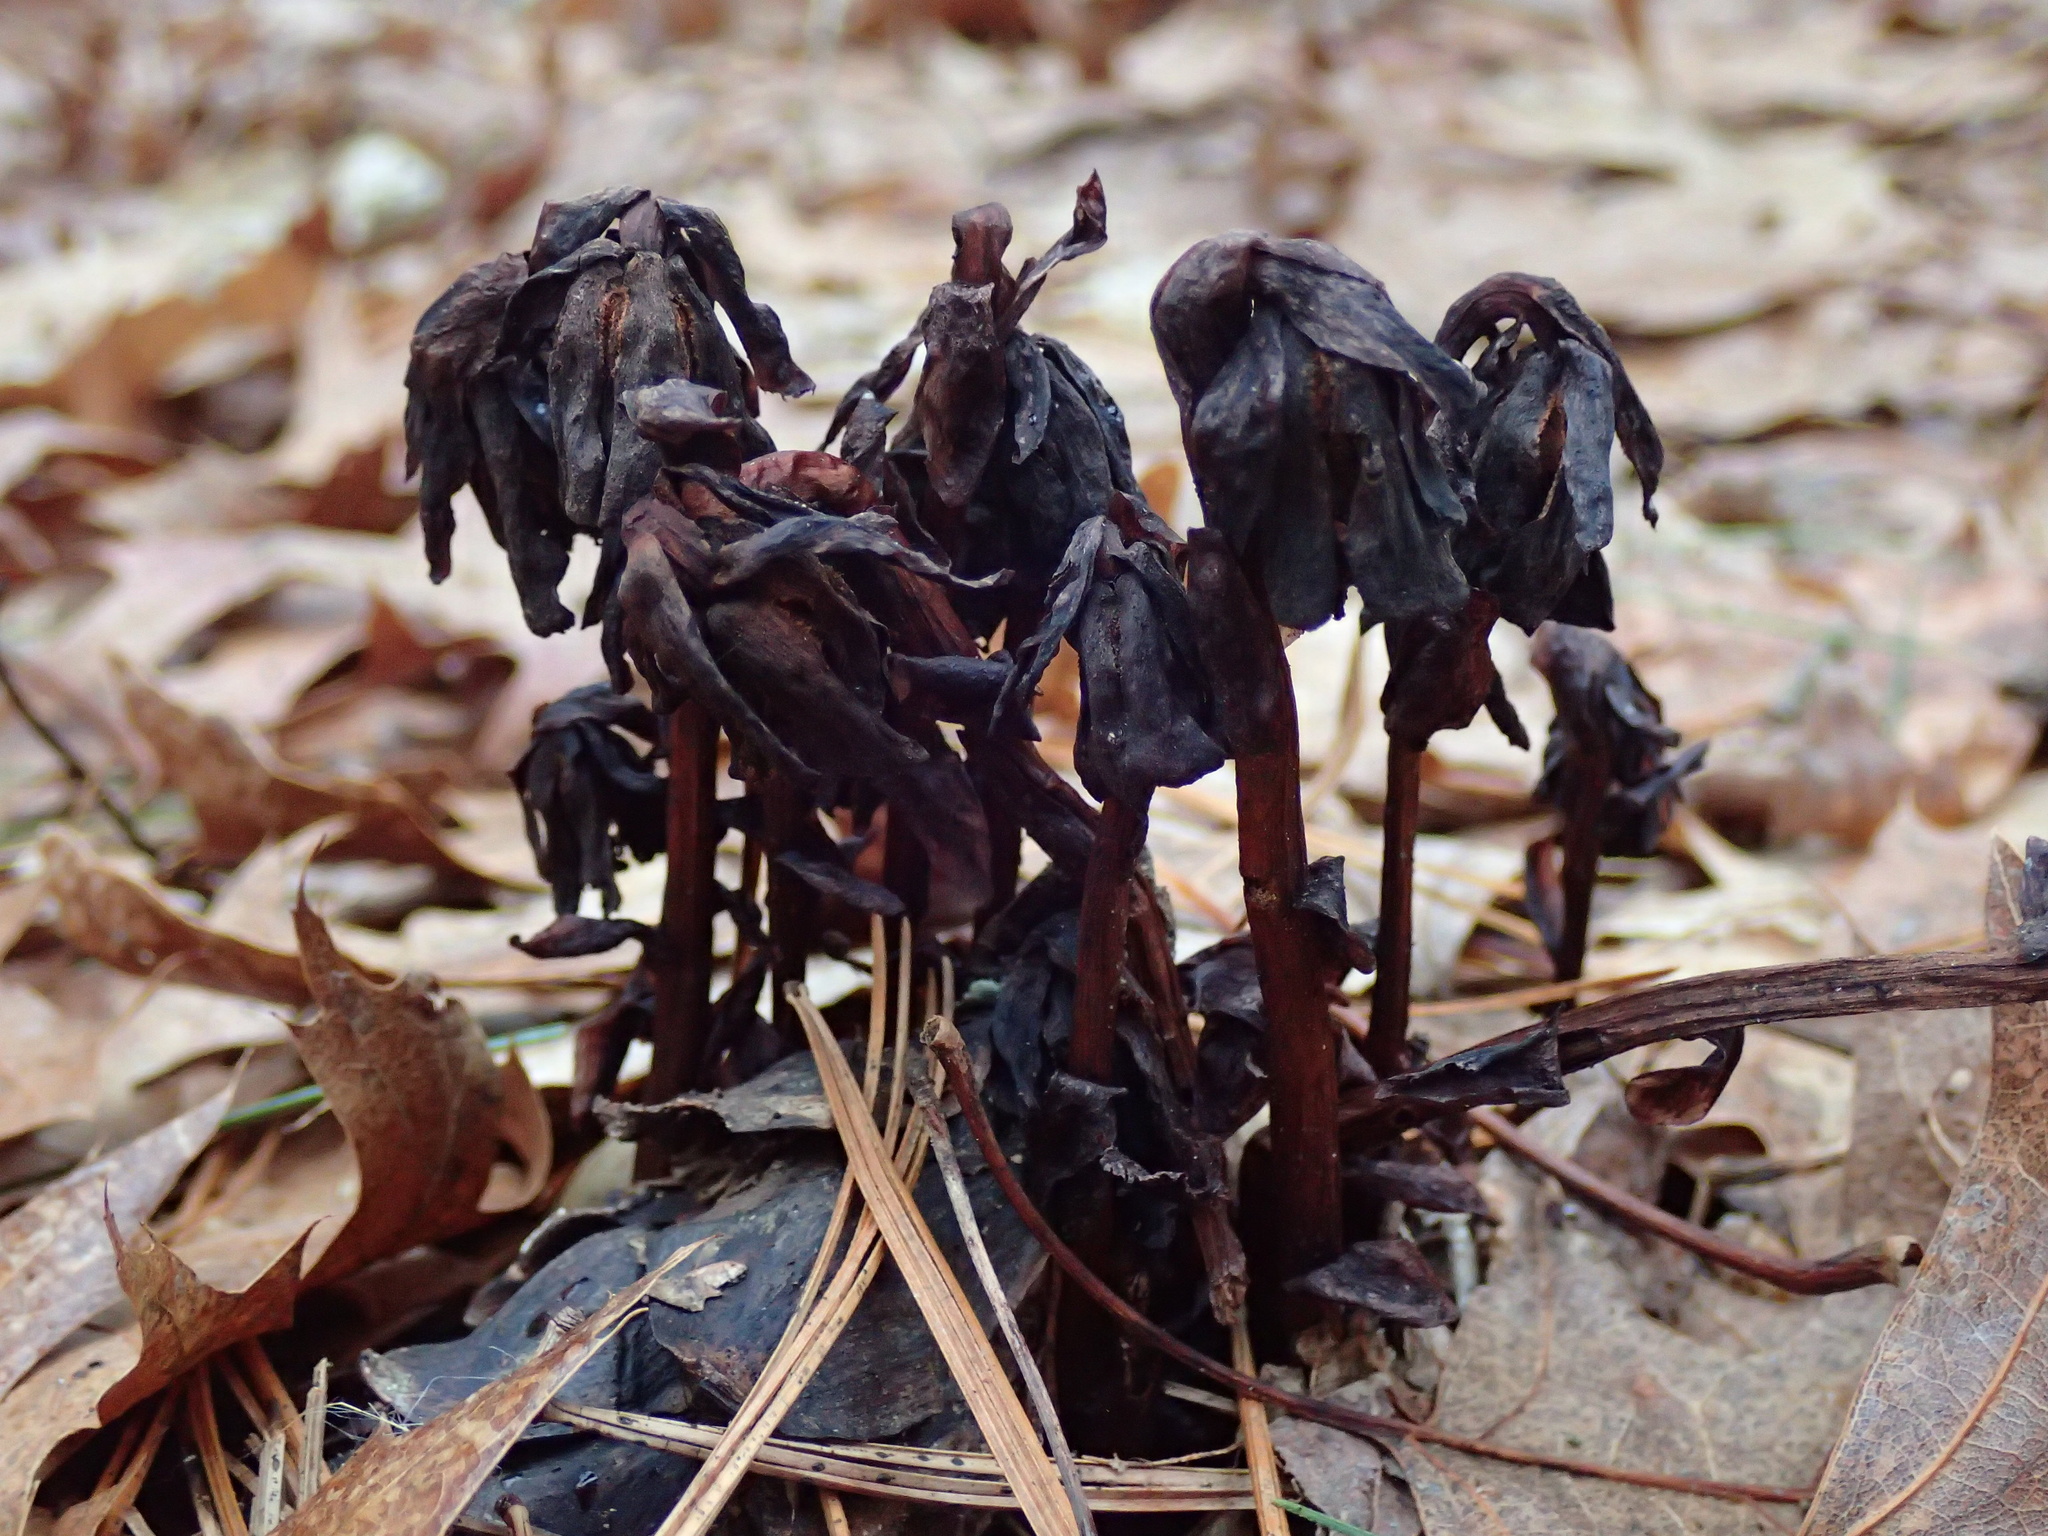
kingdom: Plantae
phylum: Tracheophyta
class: Magnoliopsida
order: Ericales
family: Ericaceae
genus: Monotropa
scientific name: Monotropa uniflora
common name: Convulsion root
